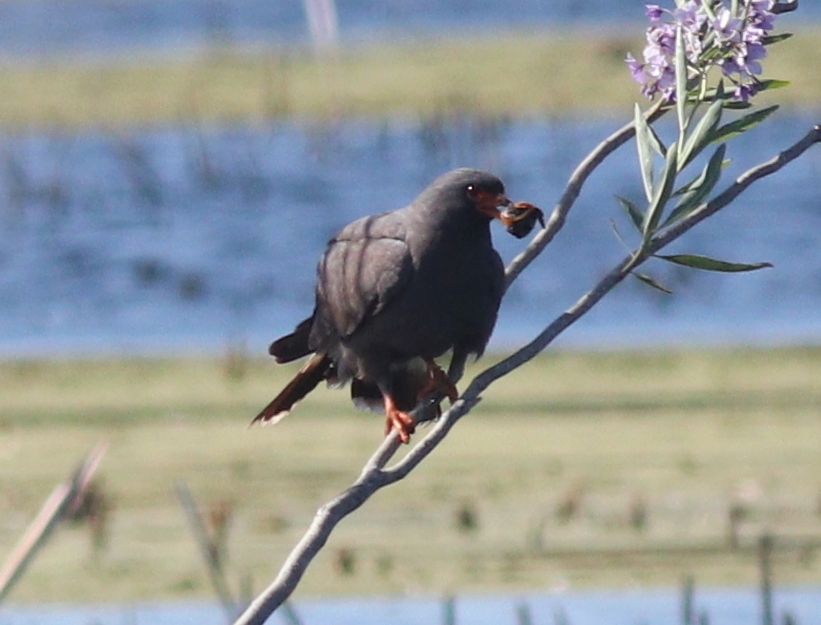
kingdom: Animalia
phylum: Chordata
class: Aves
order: Accipitriformes
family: Accipitridae
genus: Rostrhamus
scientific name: Rostrhamus sociabilis
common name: Snail kite
